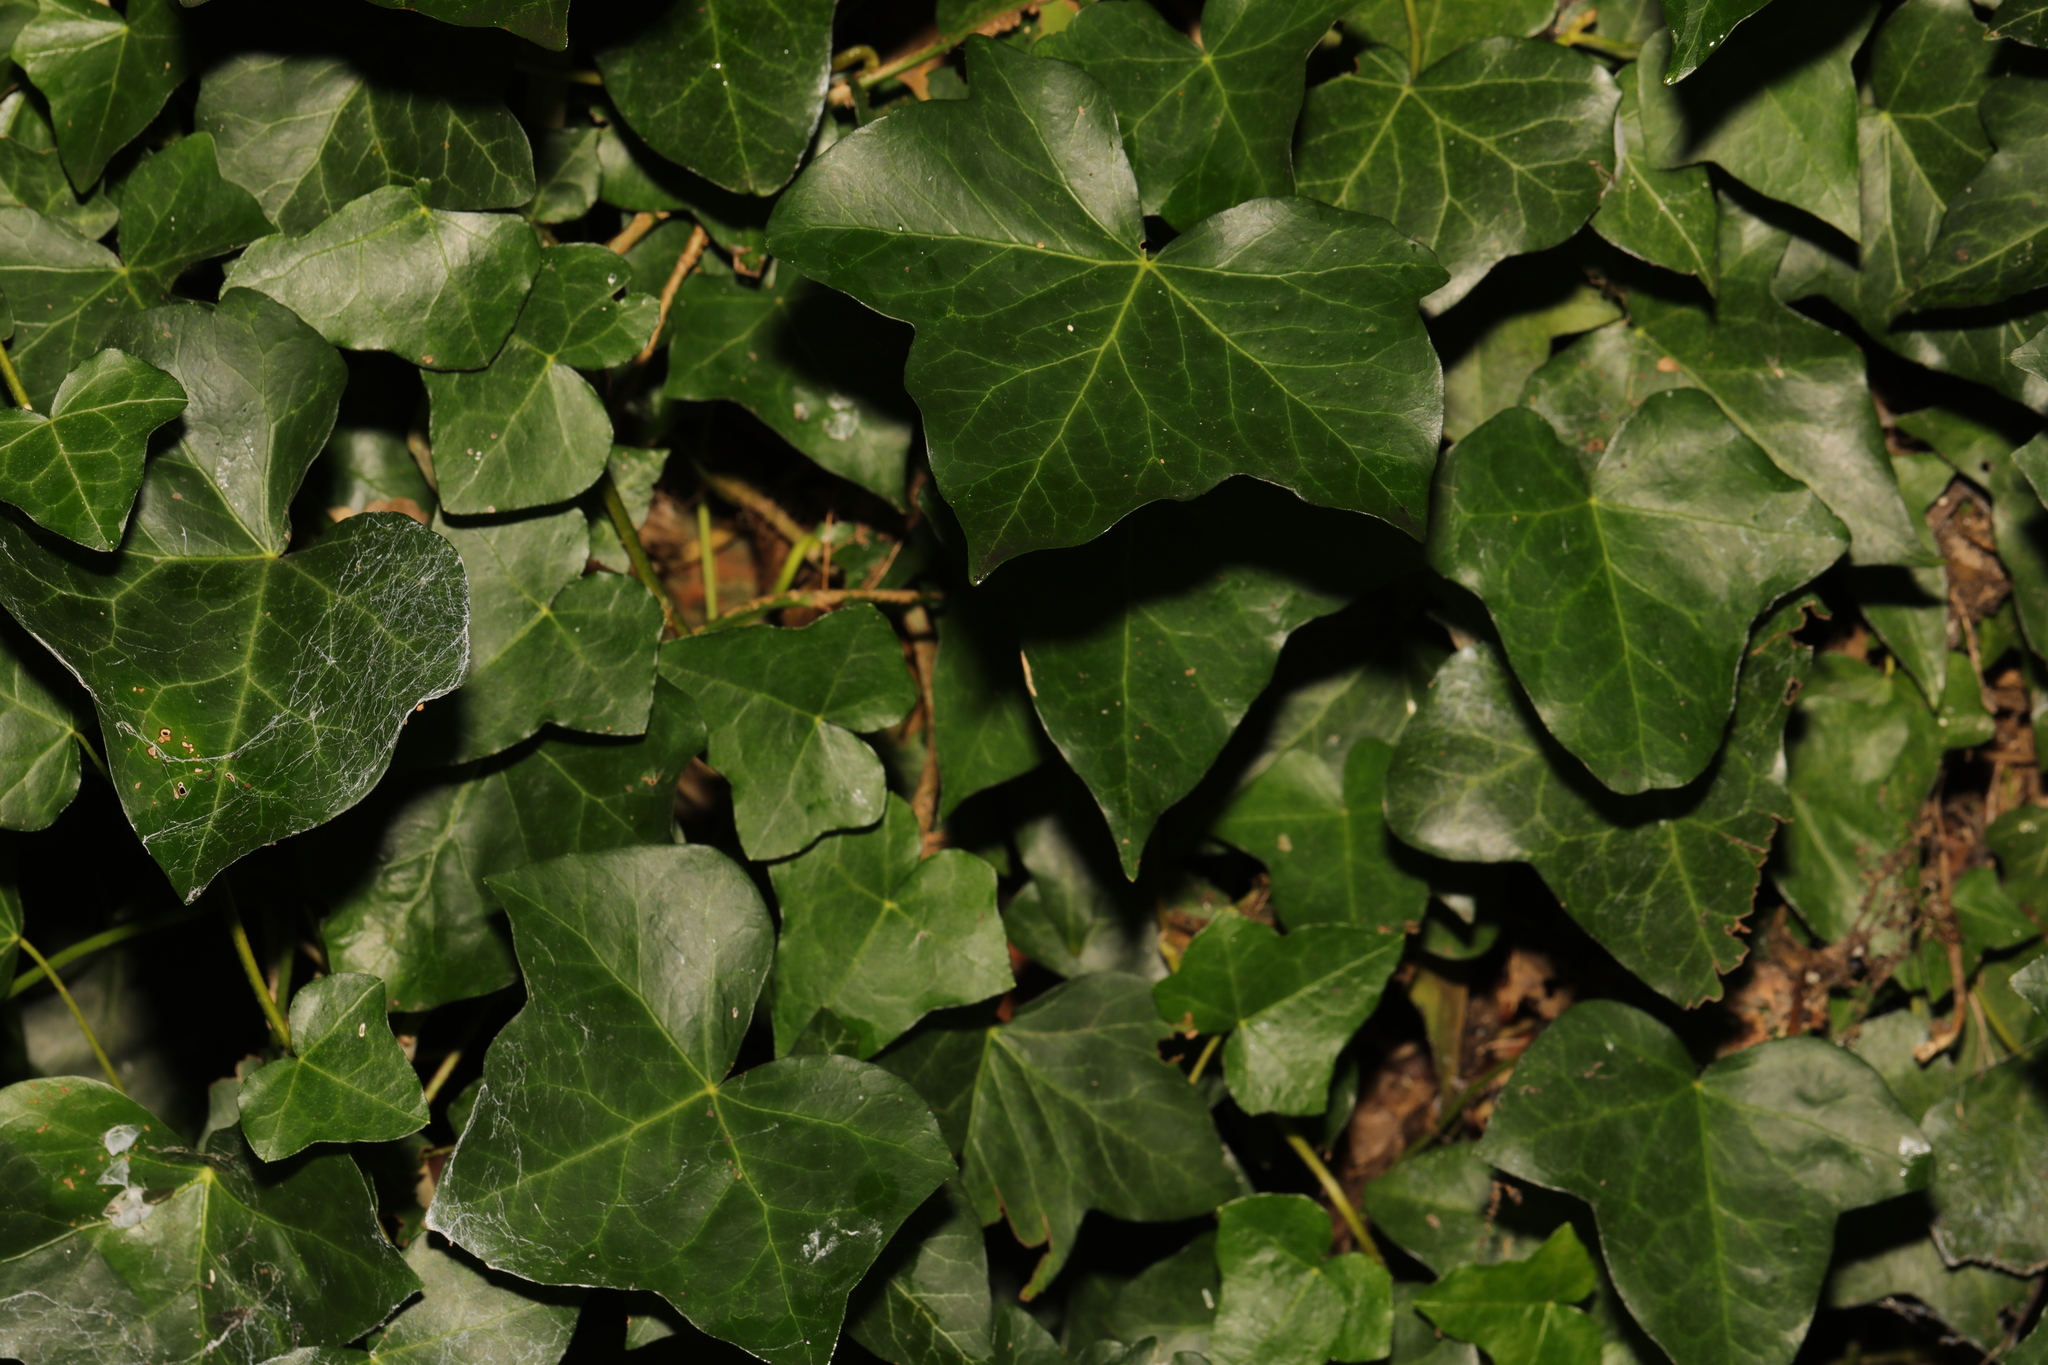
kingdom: Plantae
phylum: Tracheophyta
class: Magnoliopsida
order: Apiales
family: Araliaceae
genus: Hedera
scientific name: Hedera helix
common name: Ivy
